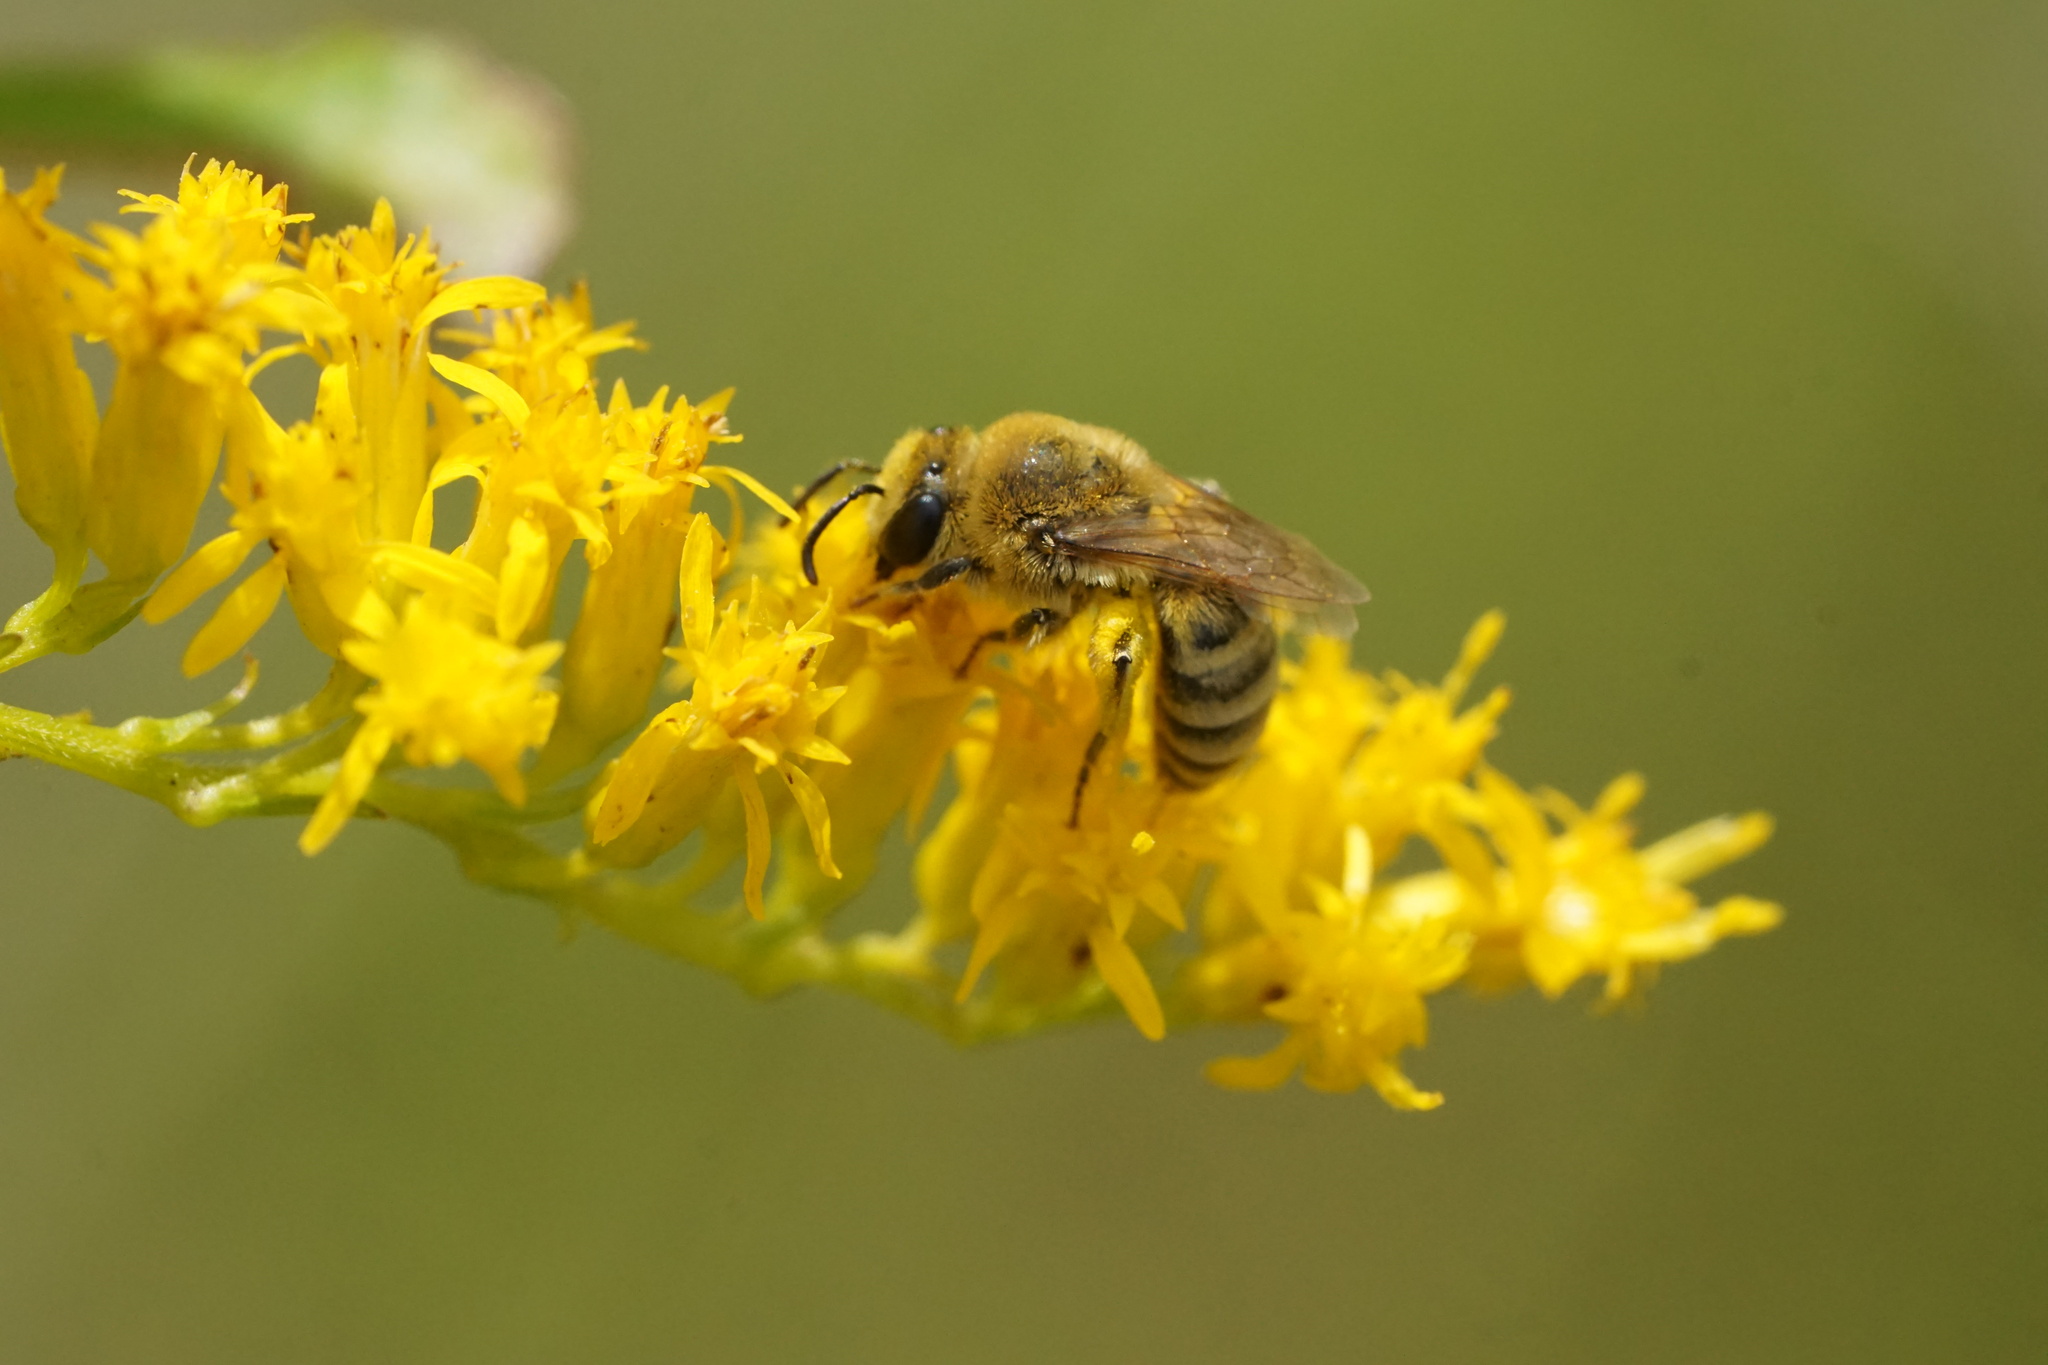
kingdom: Animalia
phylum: Arthropoda
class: Insecta
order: Hymenoptera
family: Colletidae
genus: Colletes
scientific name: Colletes solidaginis
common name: Goldenrod cellophane bee
